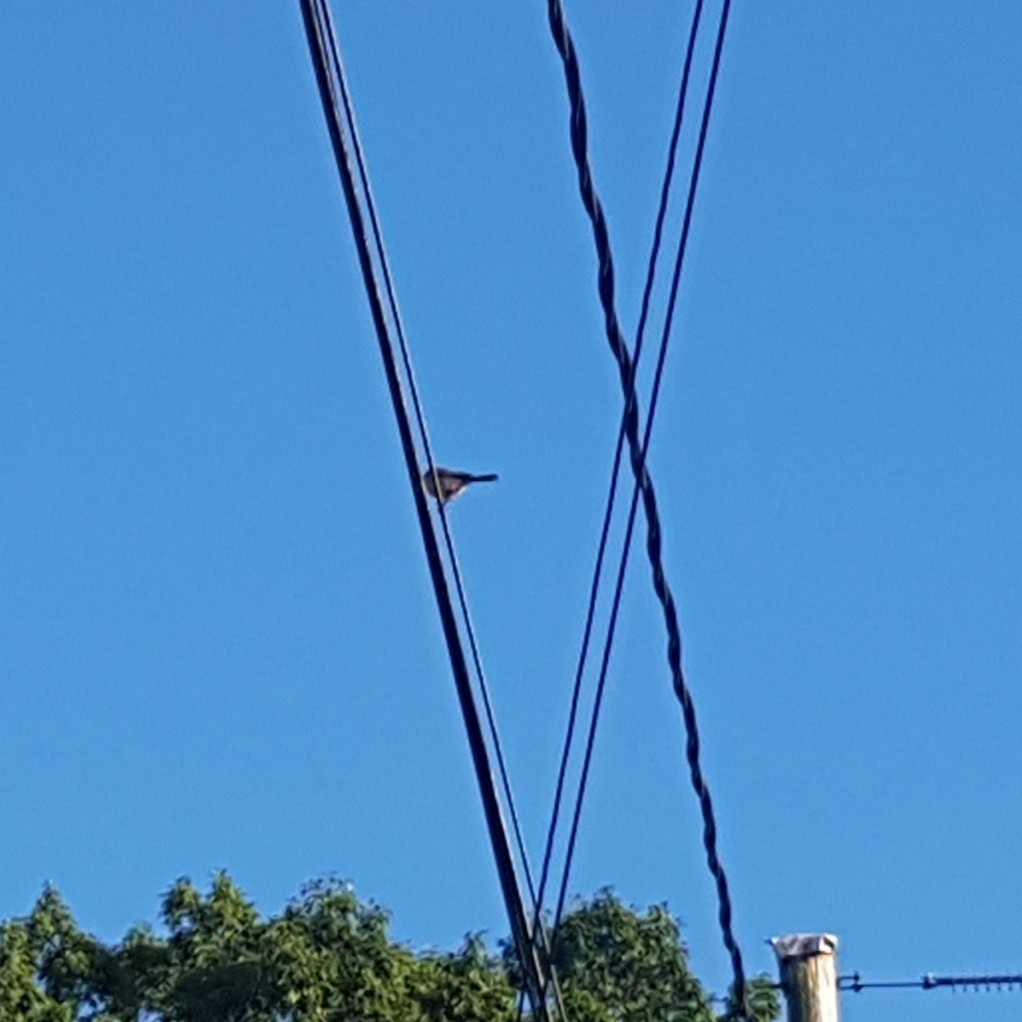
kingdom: Animalia
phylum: Chordata
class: Aves
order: Passeriformes
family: Aegithalidae
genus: Psaltriparus
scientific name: Psaltriparus minimus
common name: American bushtit
